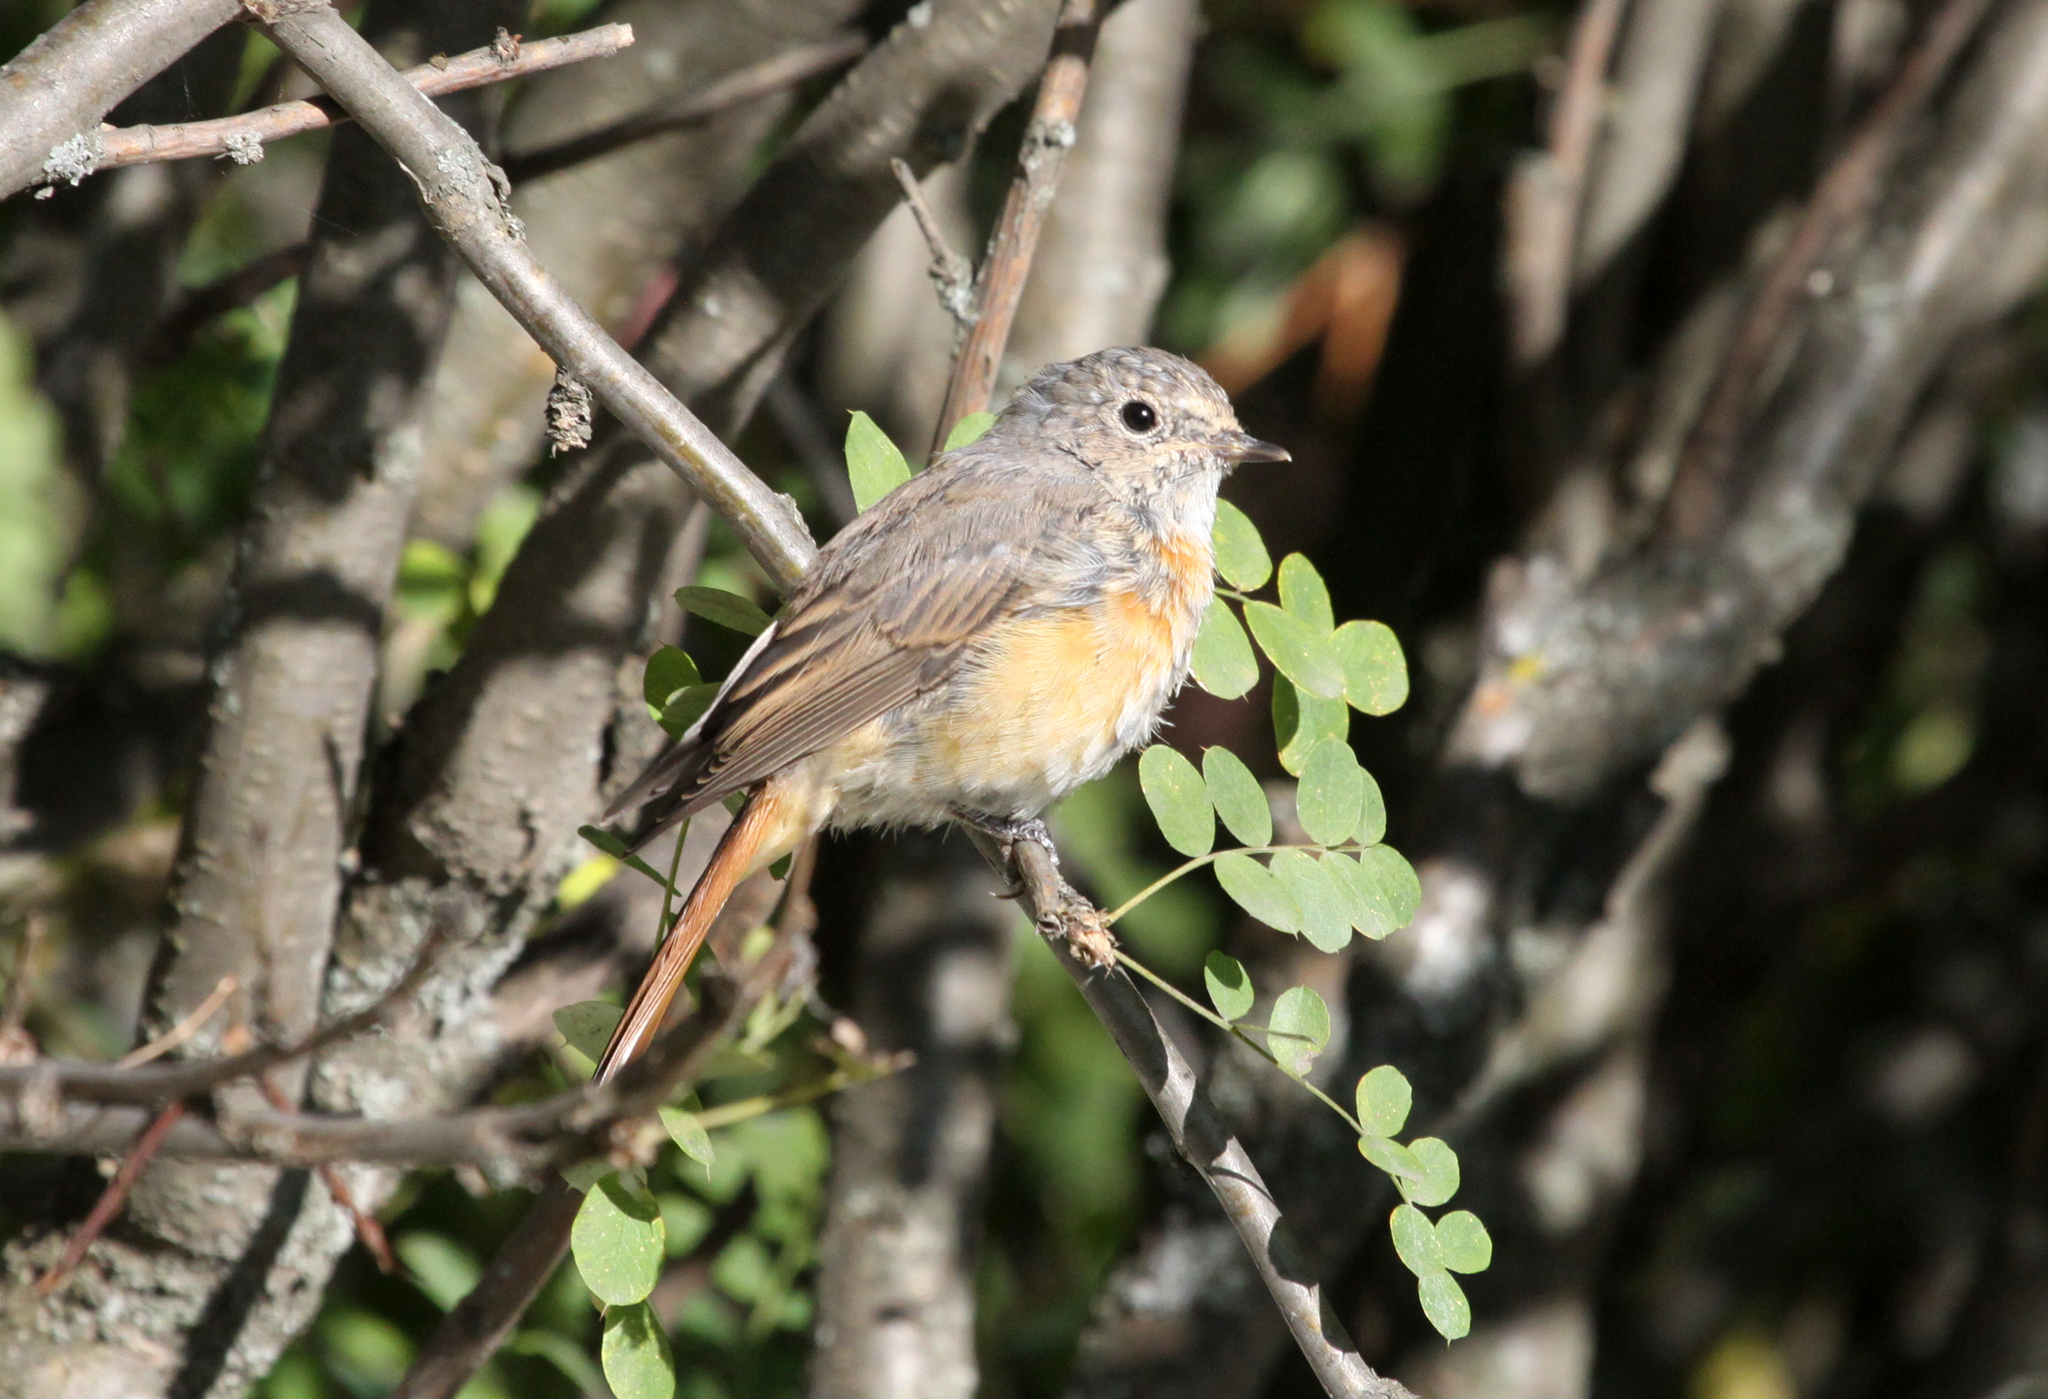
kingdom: Animalia
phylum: Chordata
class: Aves
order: Passeriformes
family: Muscicapidae
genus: Phoenicurus
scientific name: Phoenicurus phoenicurus
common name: Common redstart
